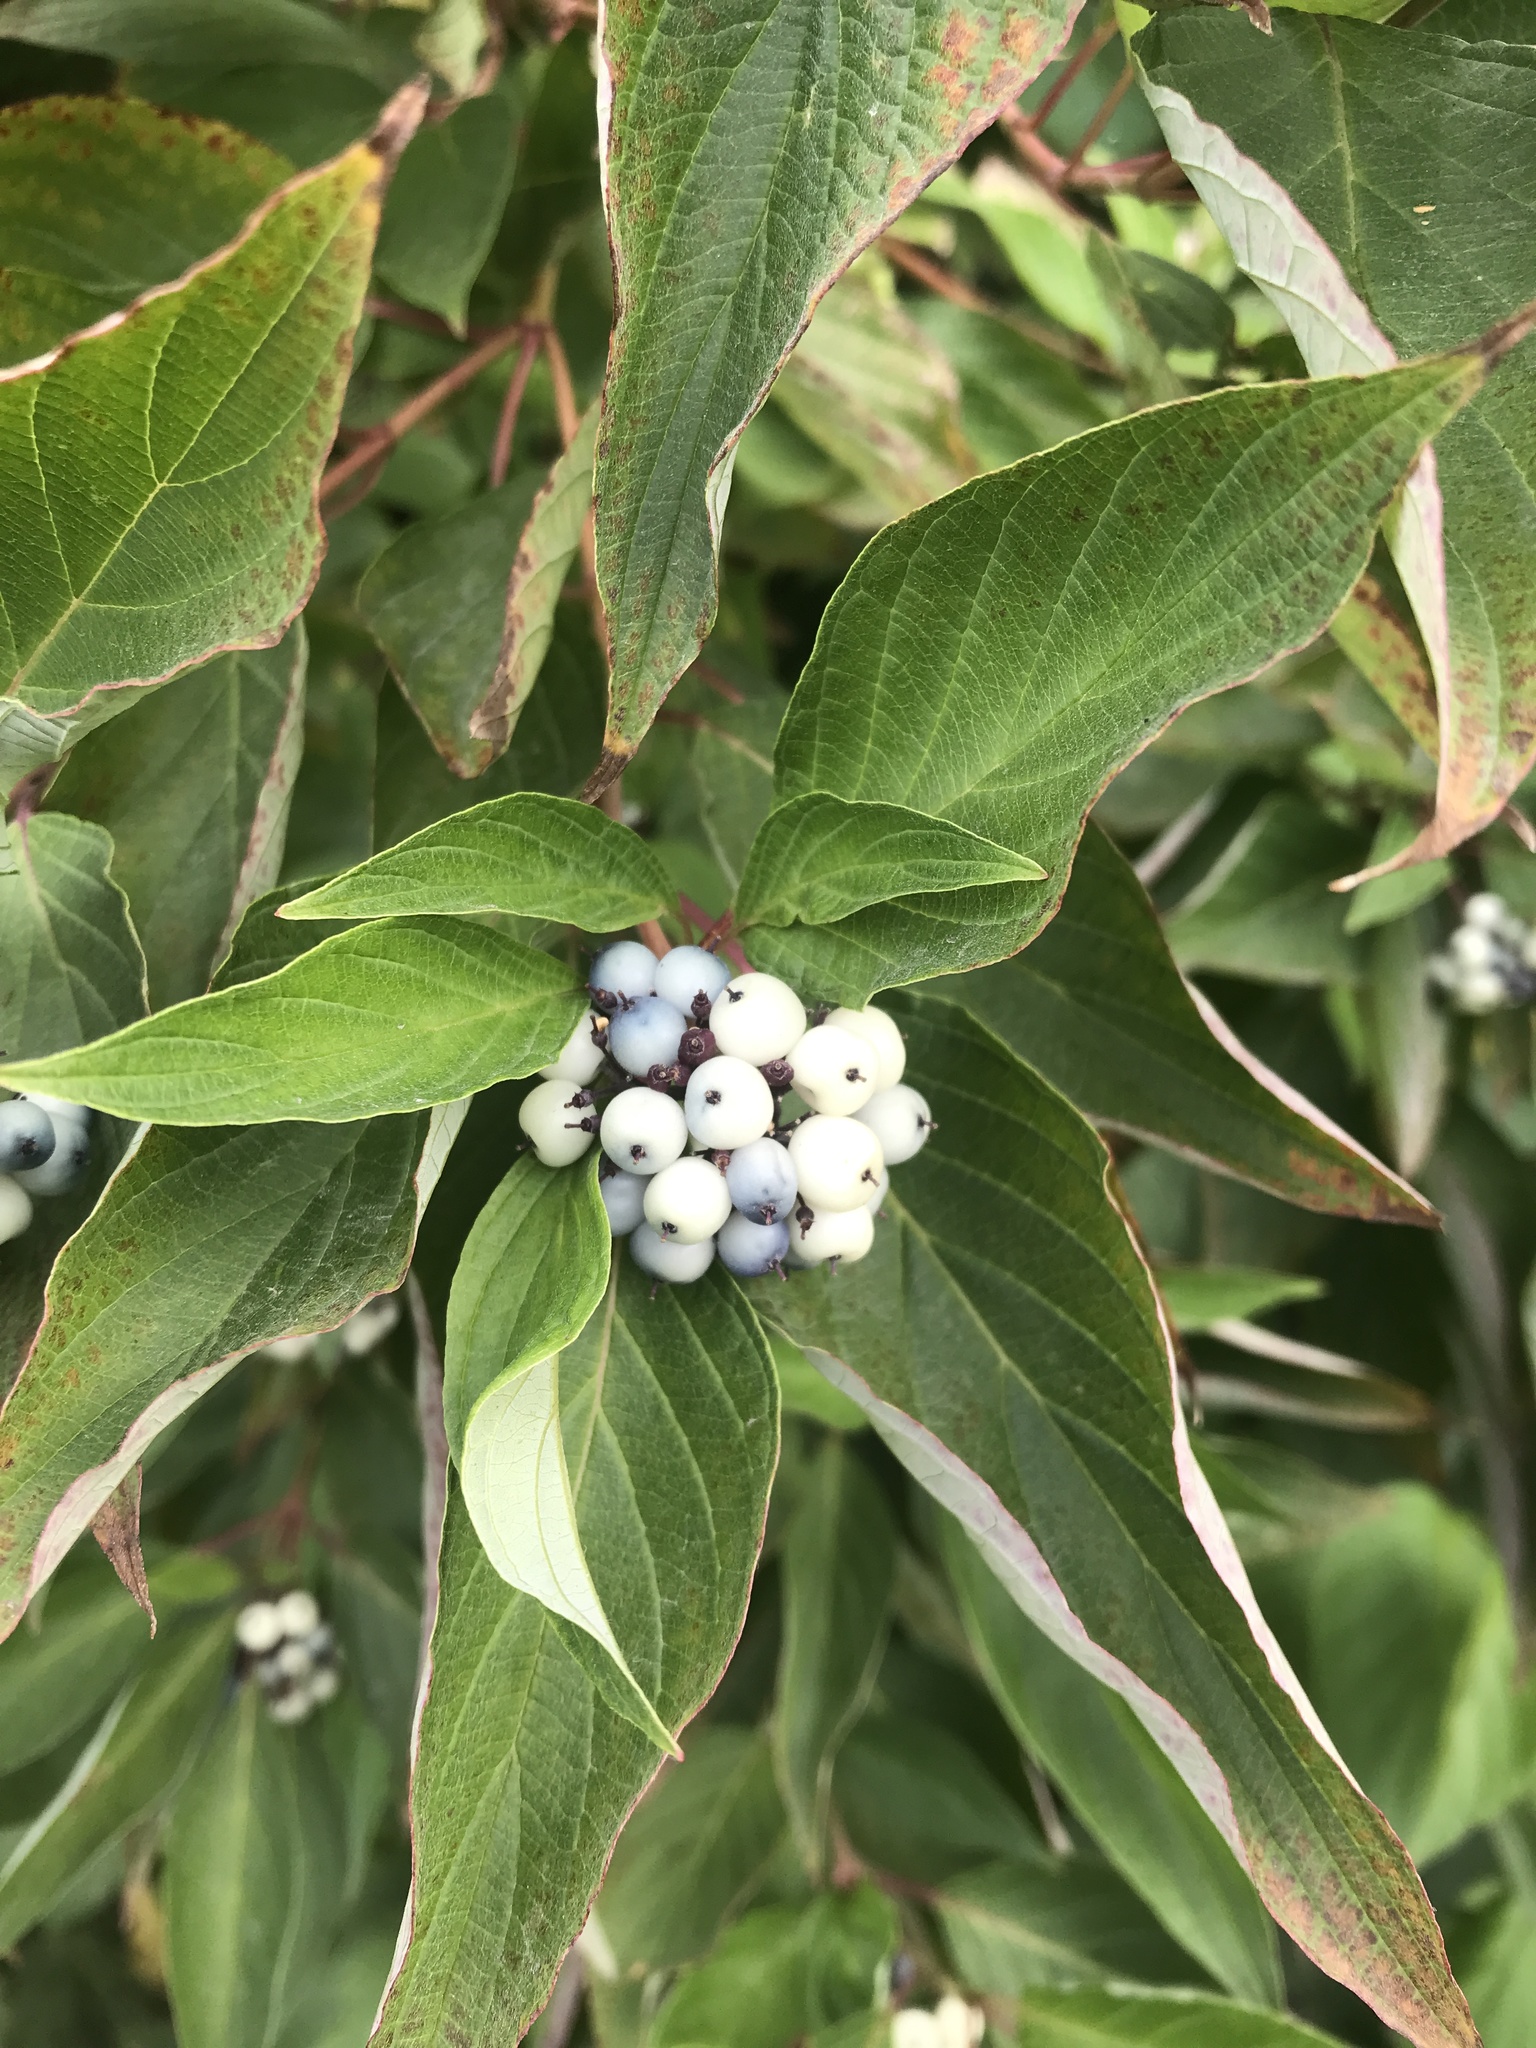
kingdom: Plantae
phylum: Tracheophyta
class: Magnoliopsida
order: Cornales
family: Cornaceae
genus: Cornus
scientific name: Cornus sericea
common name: Red-osier dogwood
